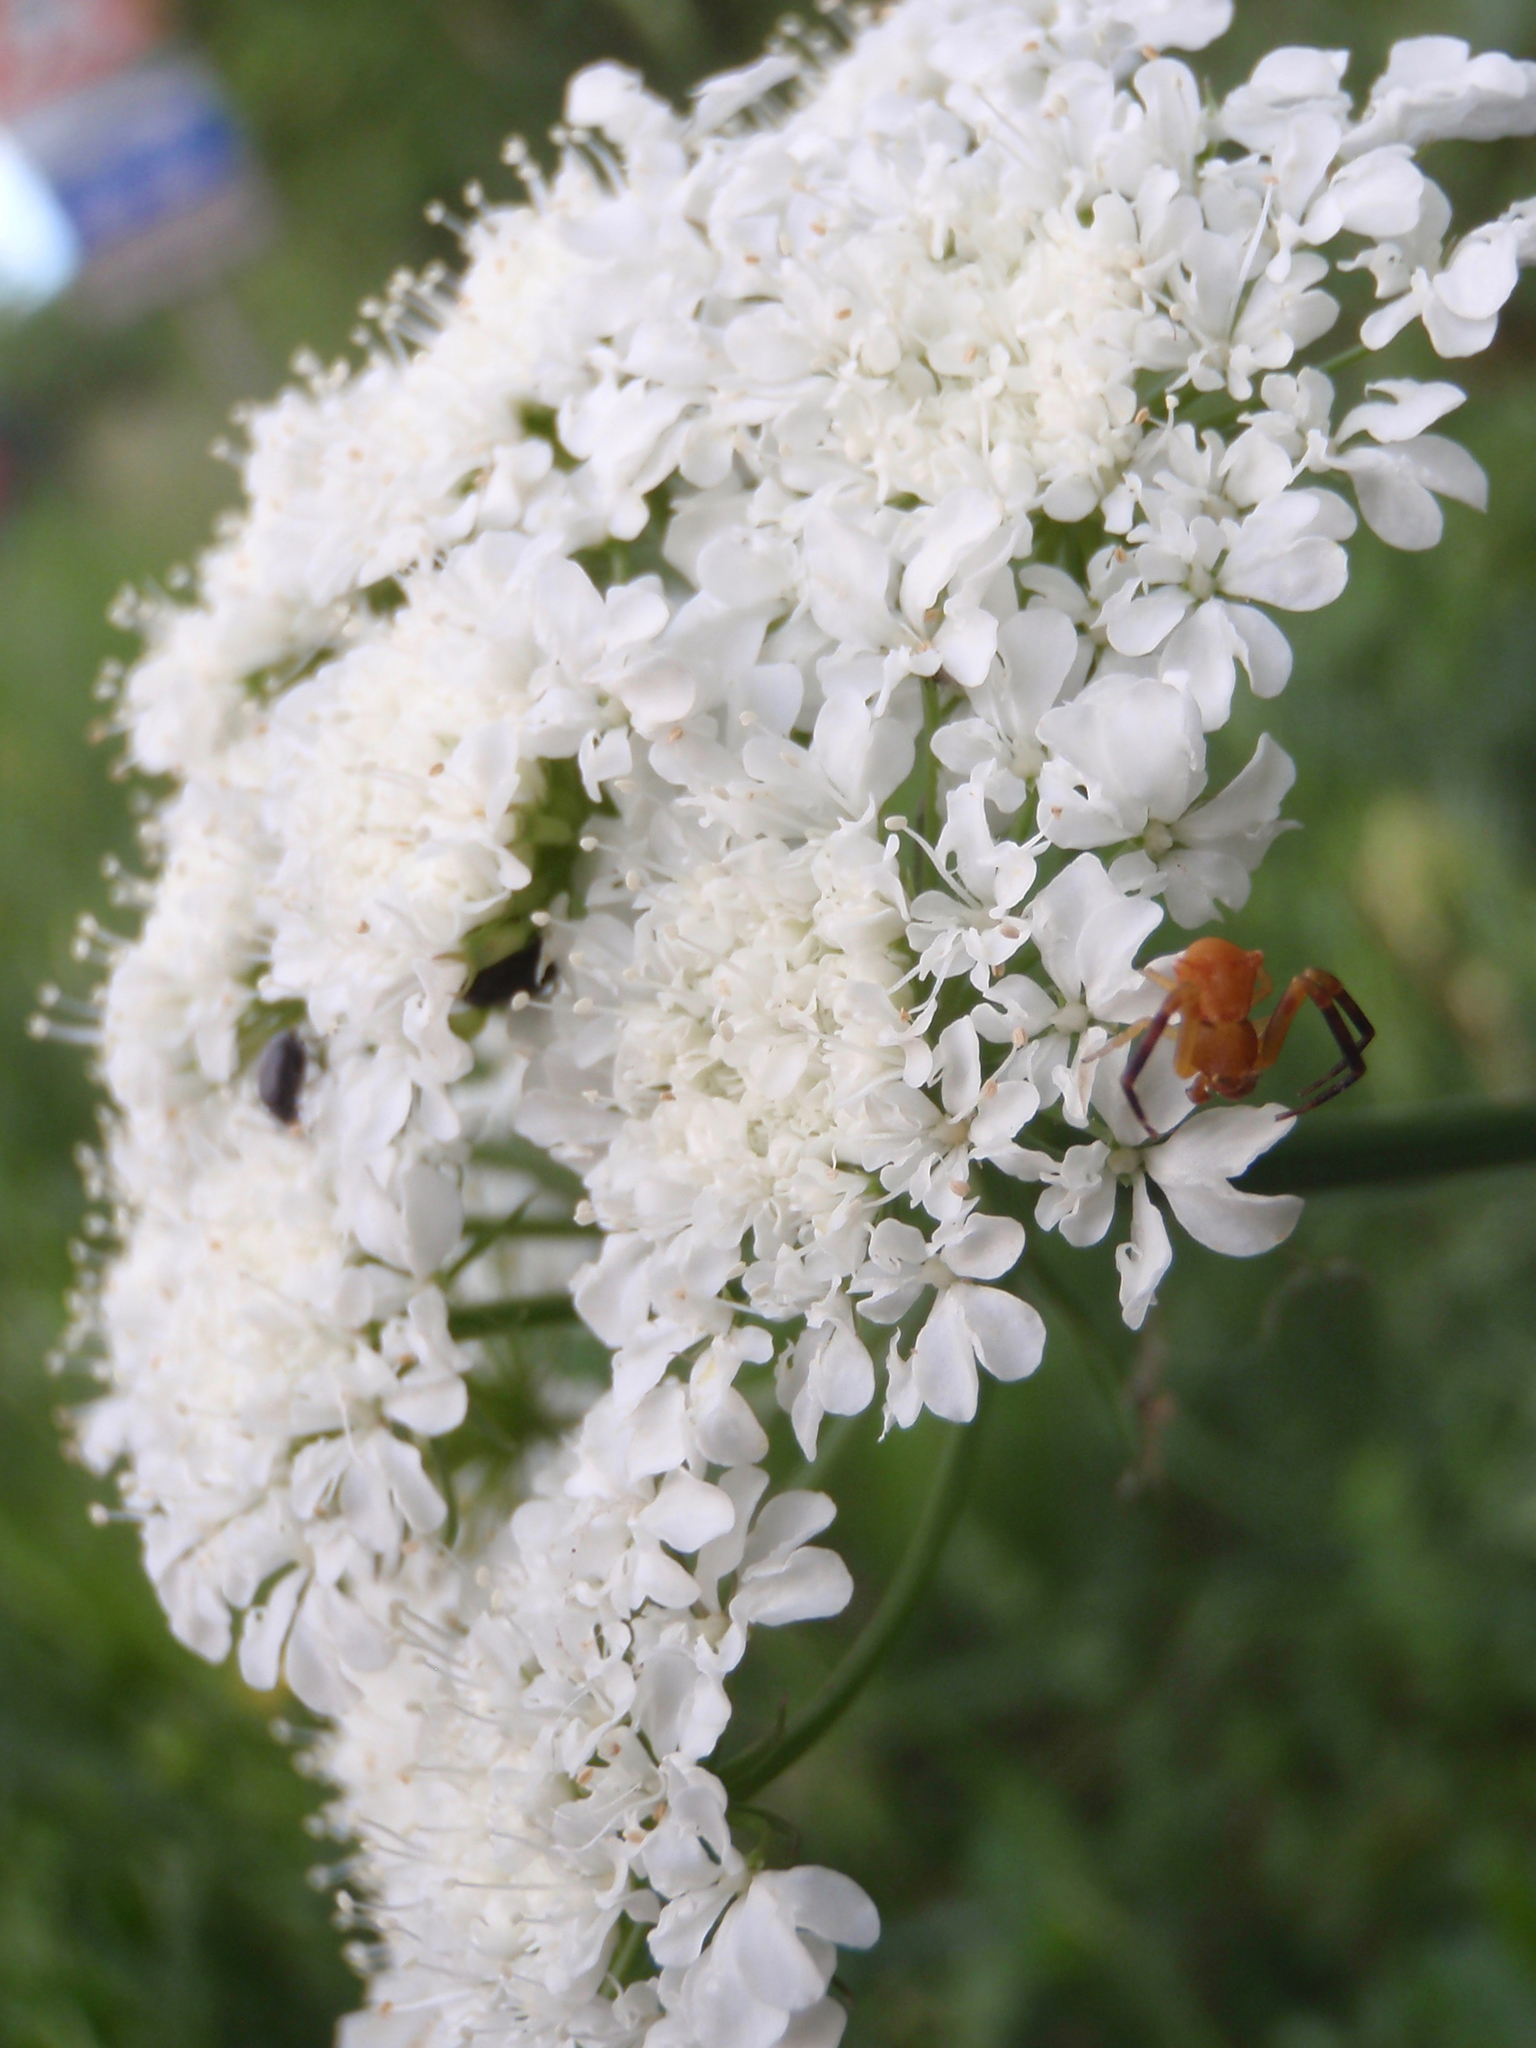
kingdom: Animalia
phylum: Arthropoda
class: Arachnida
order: Araneae
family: Thomisidae
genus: Thomisus
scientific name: Thomisus onustus
